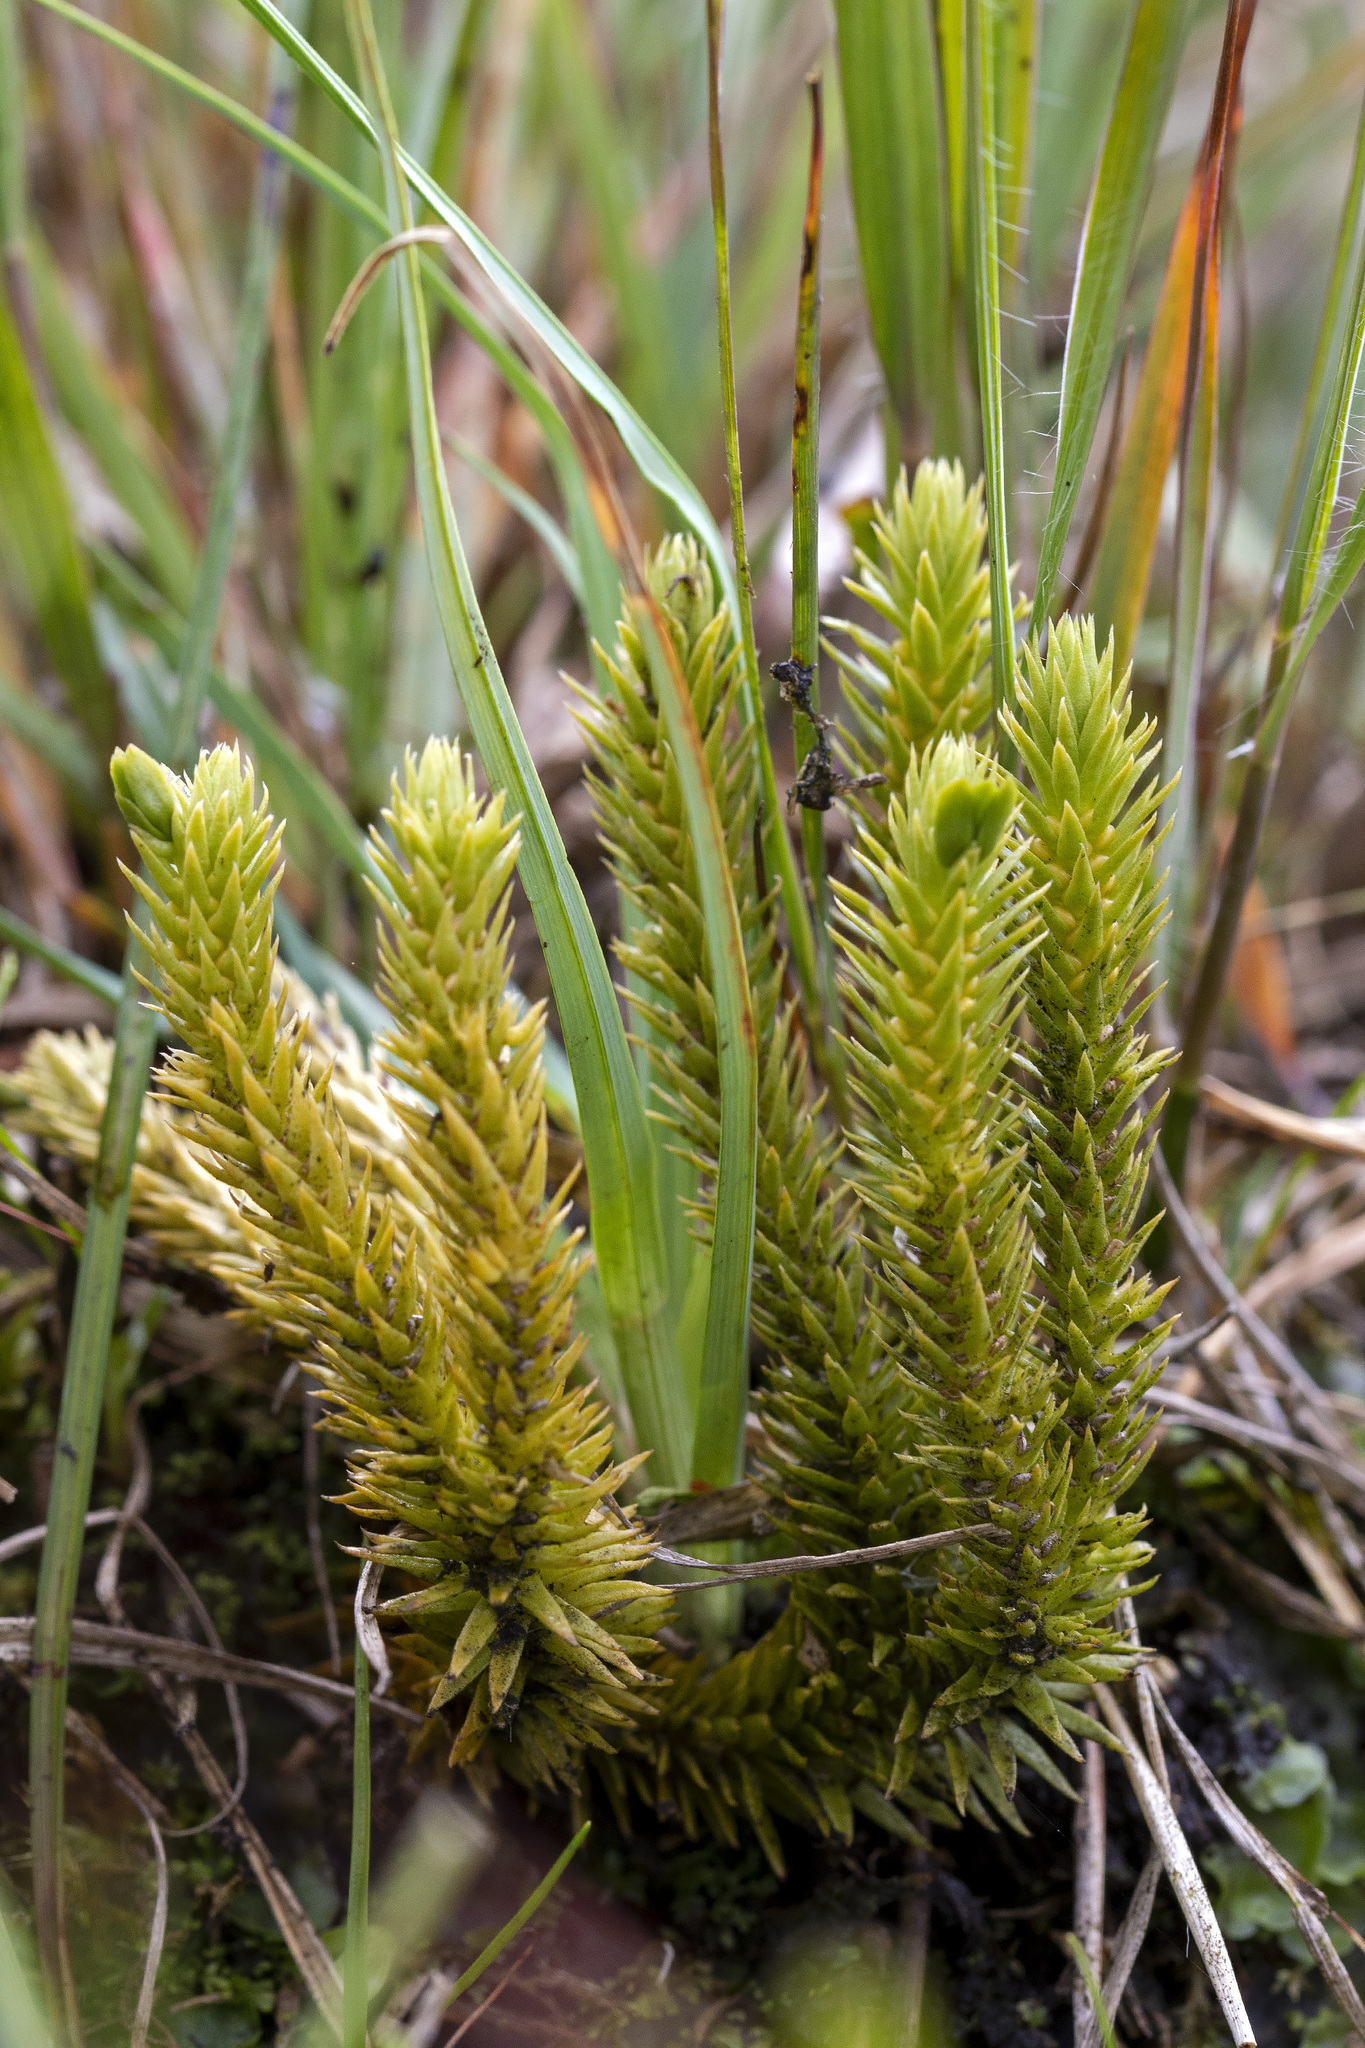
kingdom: Plantae
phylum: Tracheophyta
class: Lycopodiopsida
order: Lycopodiales
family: Lycopodiaceae
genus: Huperzia
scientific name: Huperzia selago
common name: Northern firmoss
